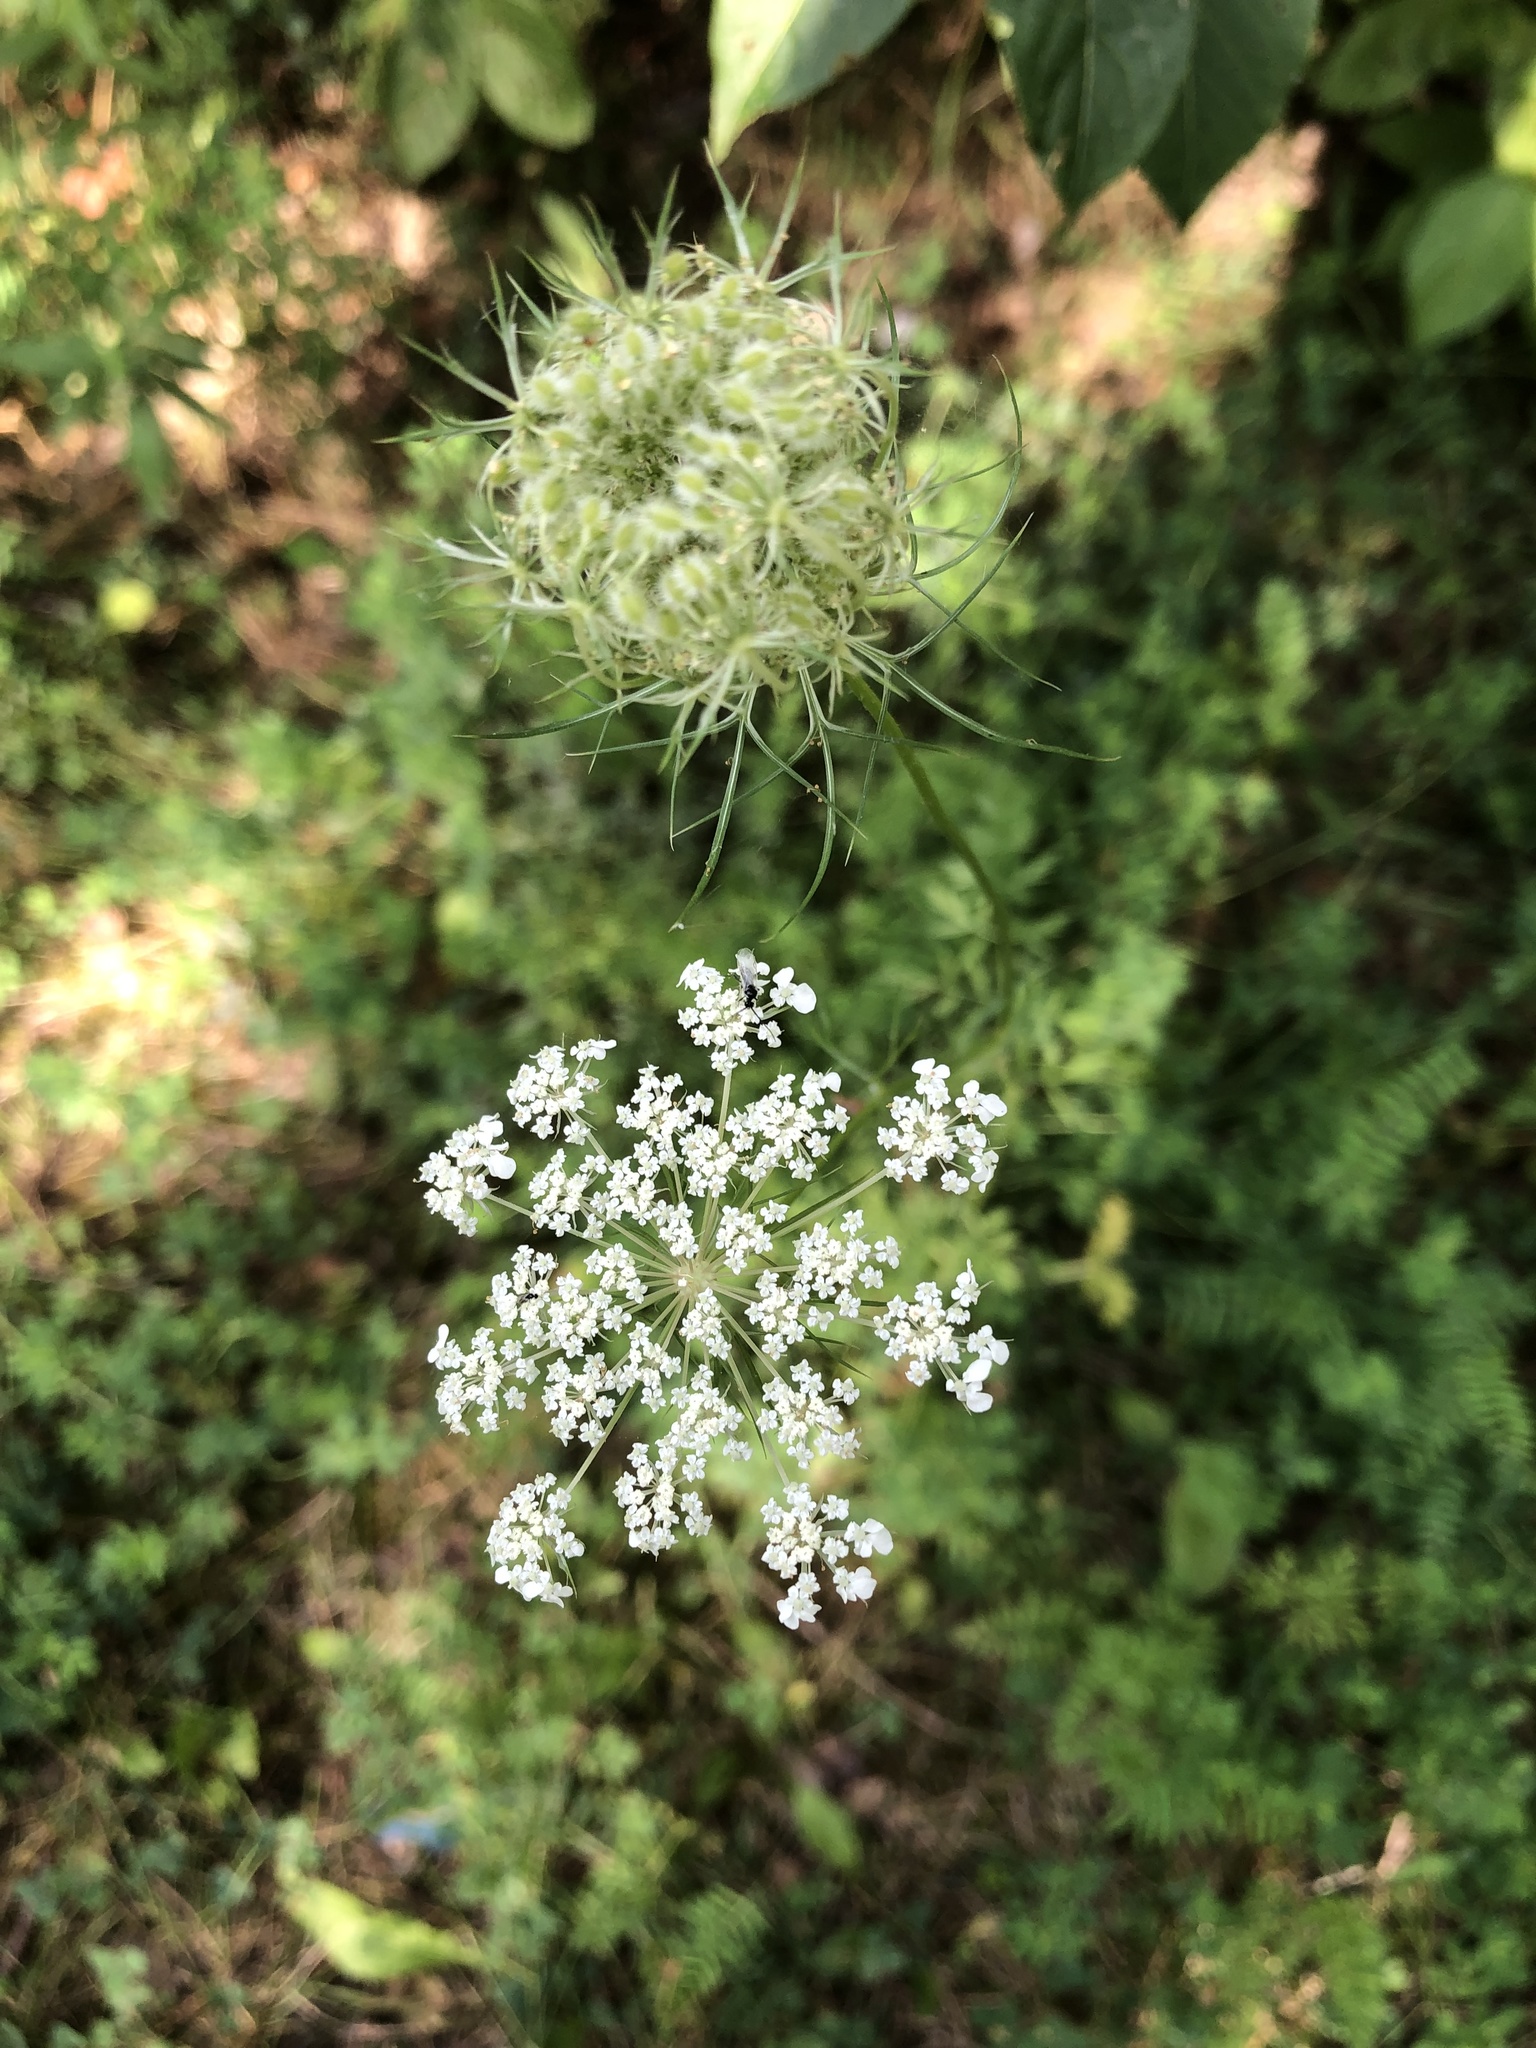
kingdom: Plantae
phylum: Tracheophyta
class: Magnoliopsida
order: Apiales
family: Apiaceae
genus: Daucus
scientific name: Daucus carota
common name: Wild carrot
